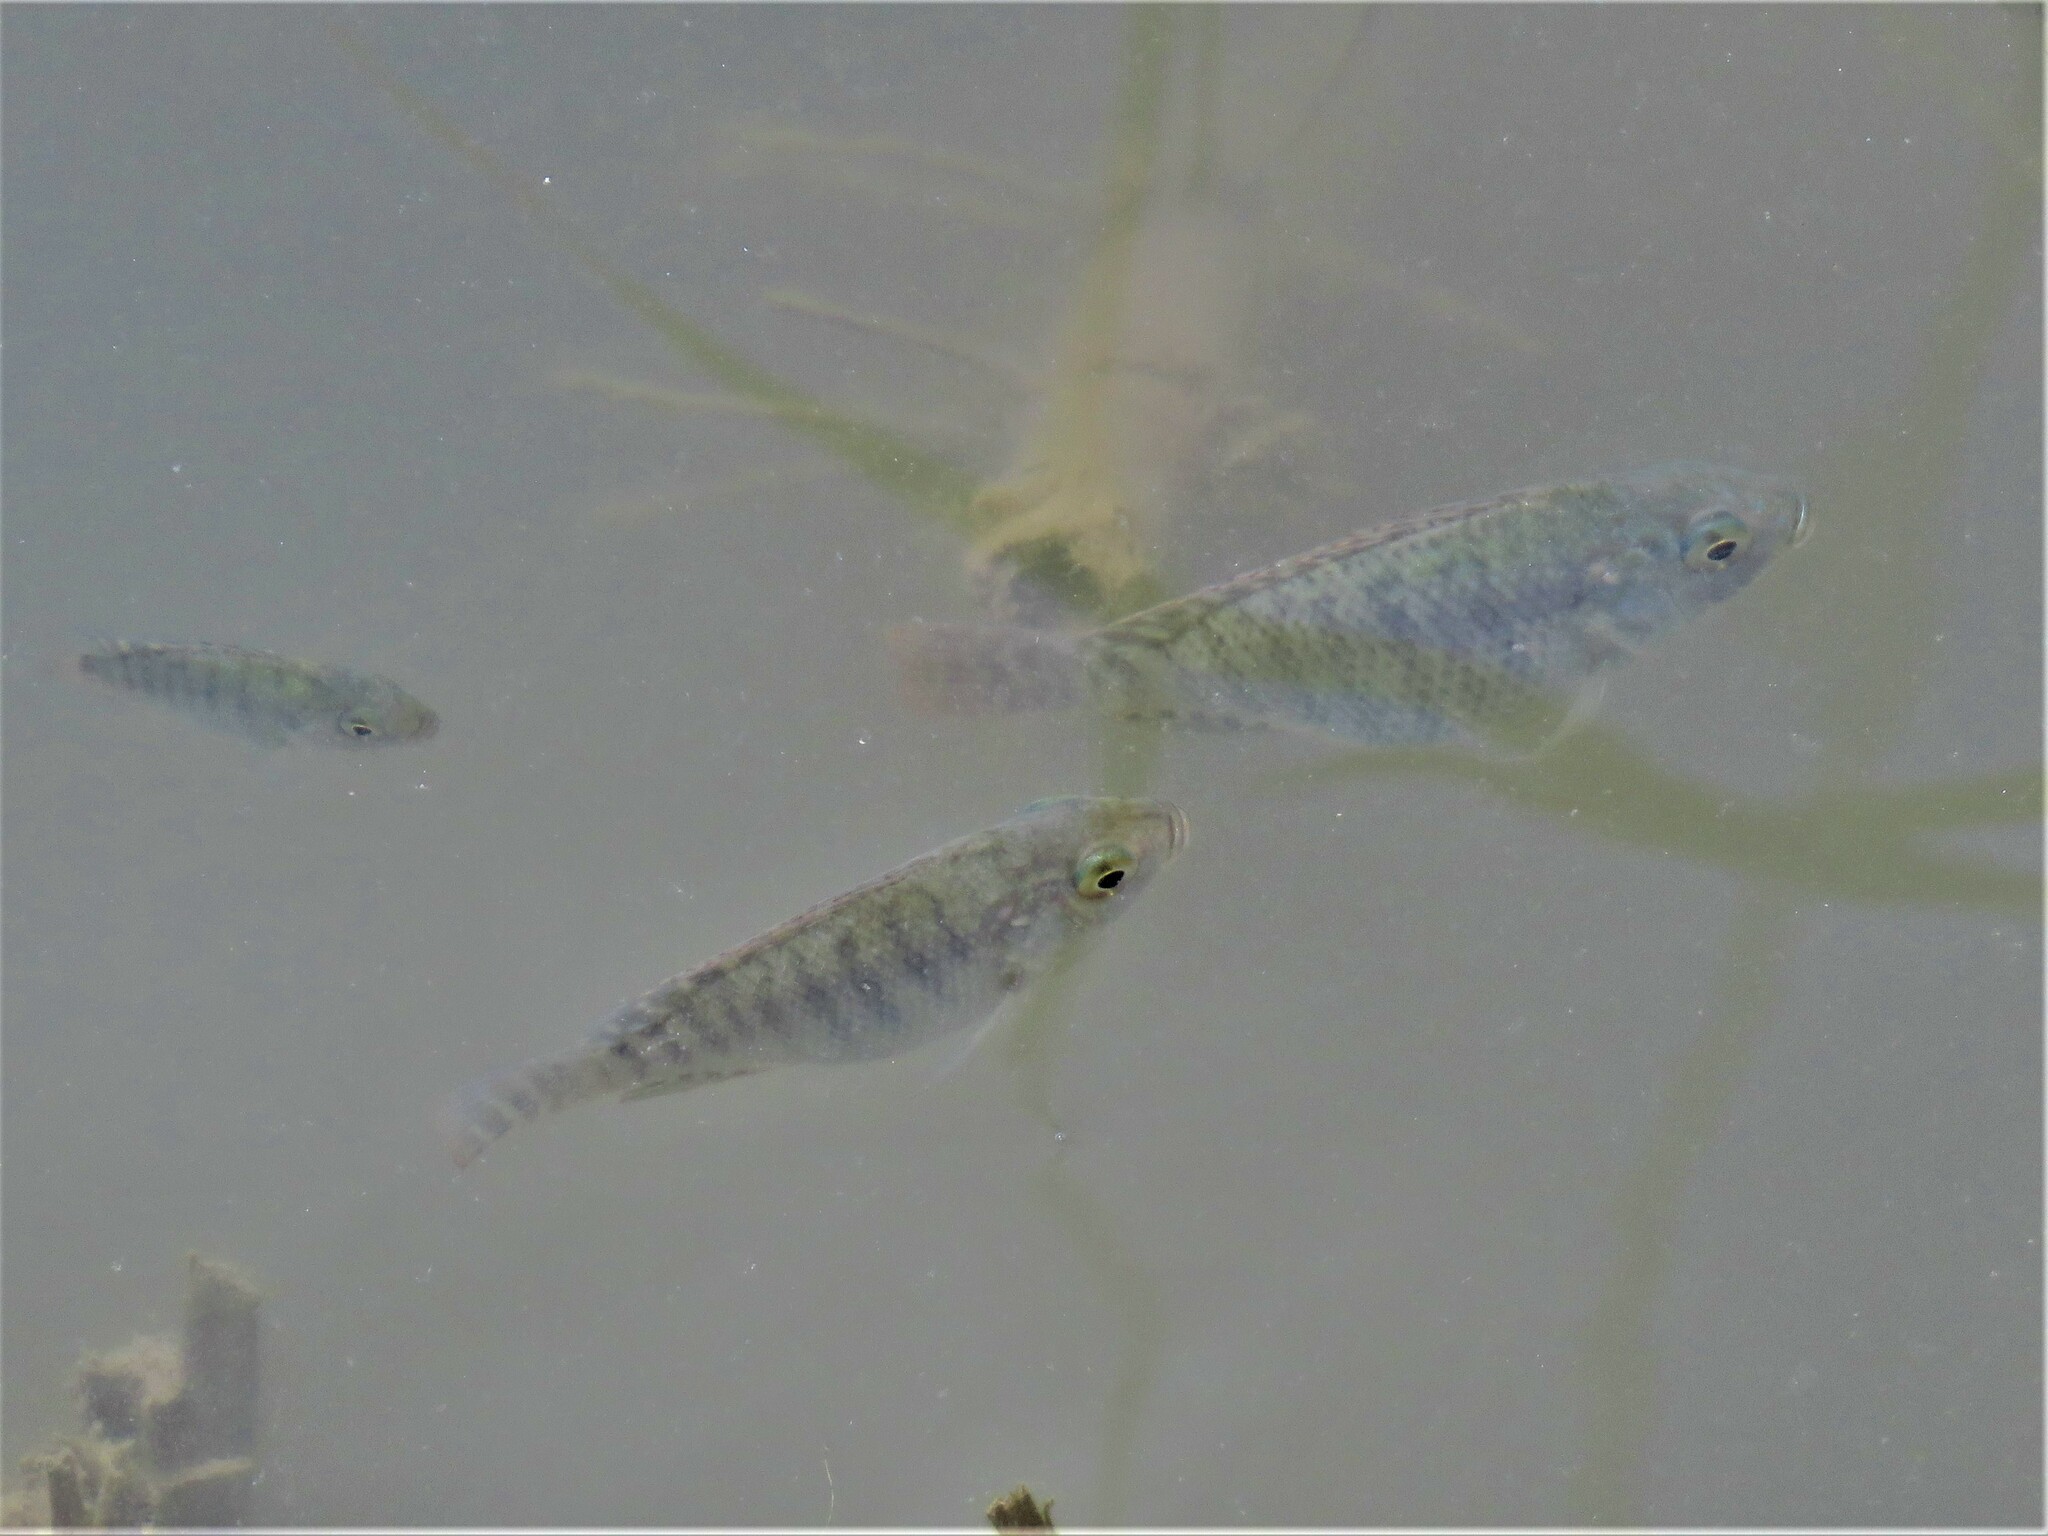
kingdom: Animalia
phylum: Chordata
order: Perciformes
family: Cichlidae
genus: Oreochromis
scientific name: Oreochromis aureus
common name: Blue tilapia
